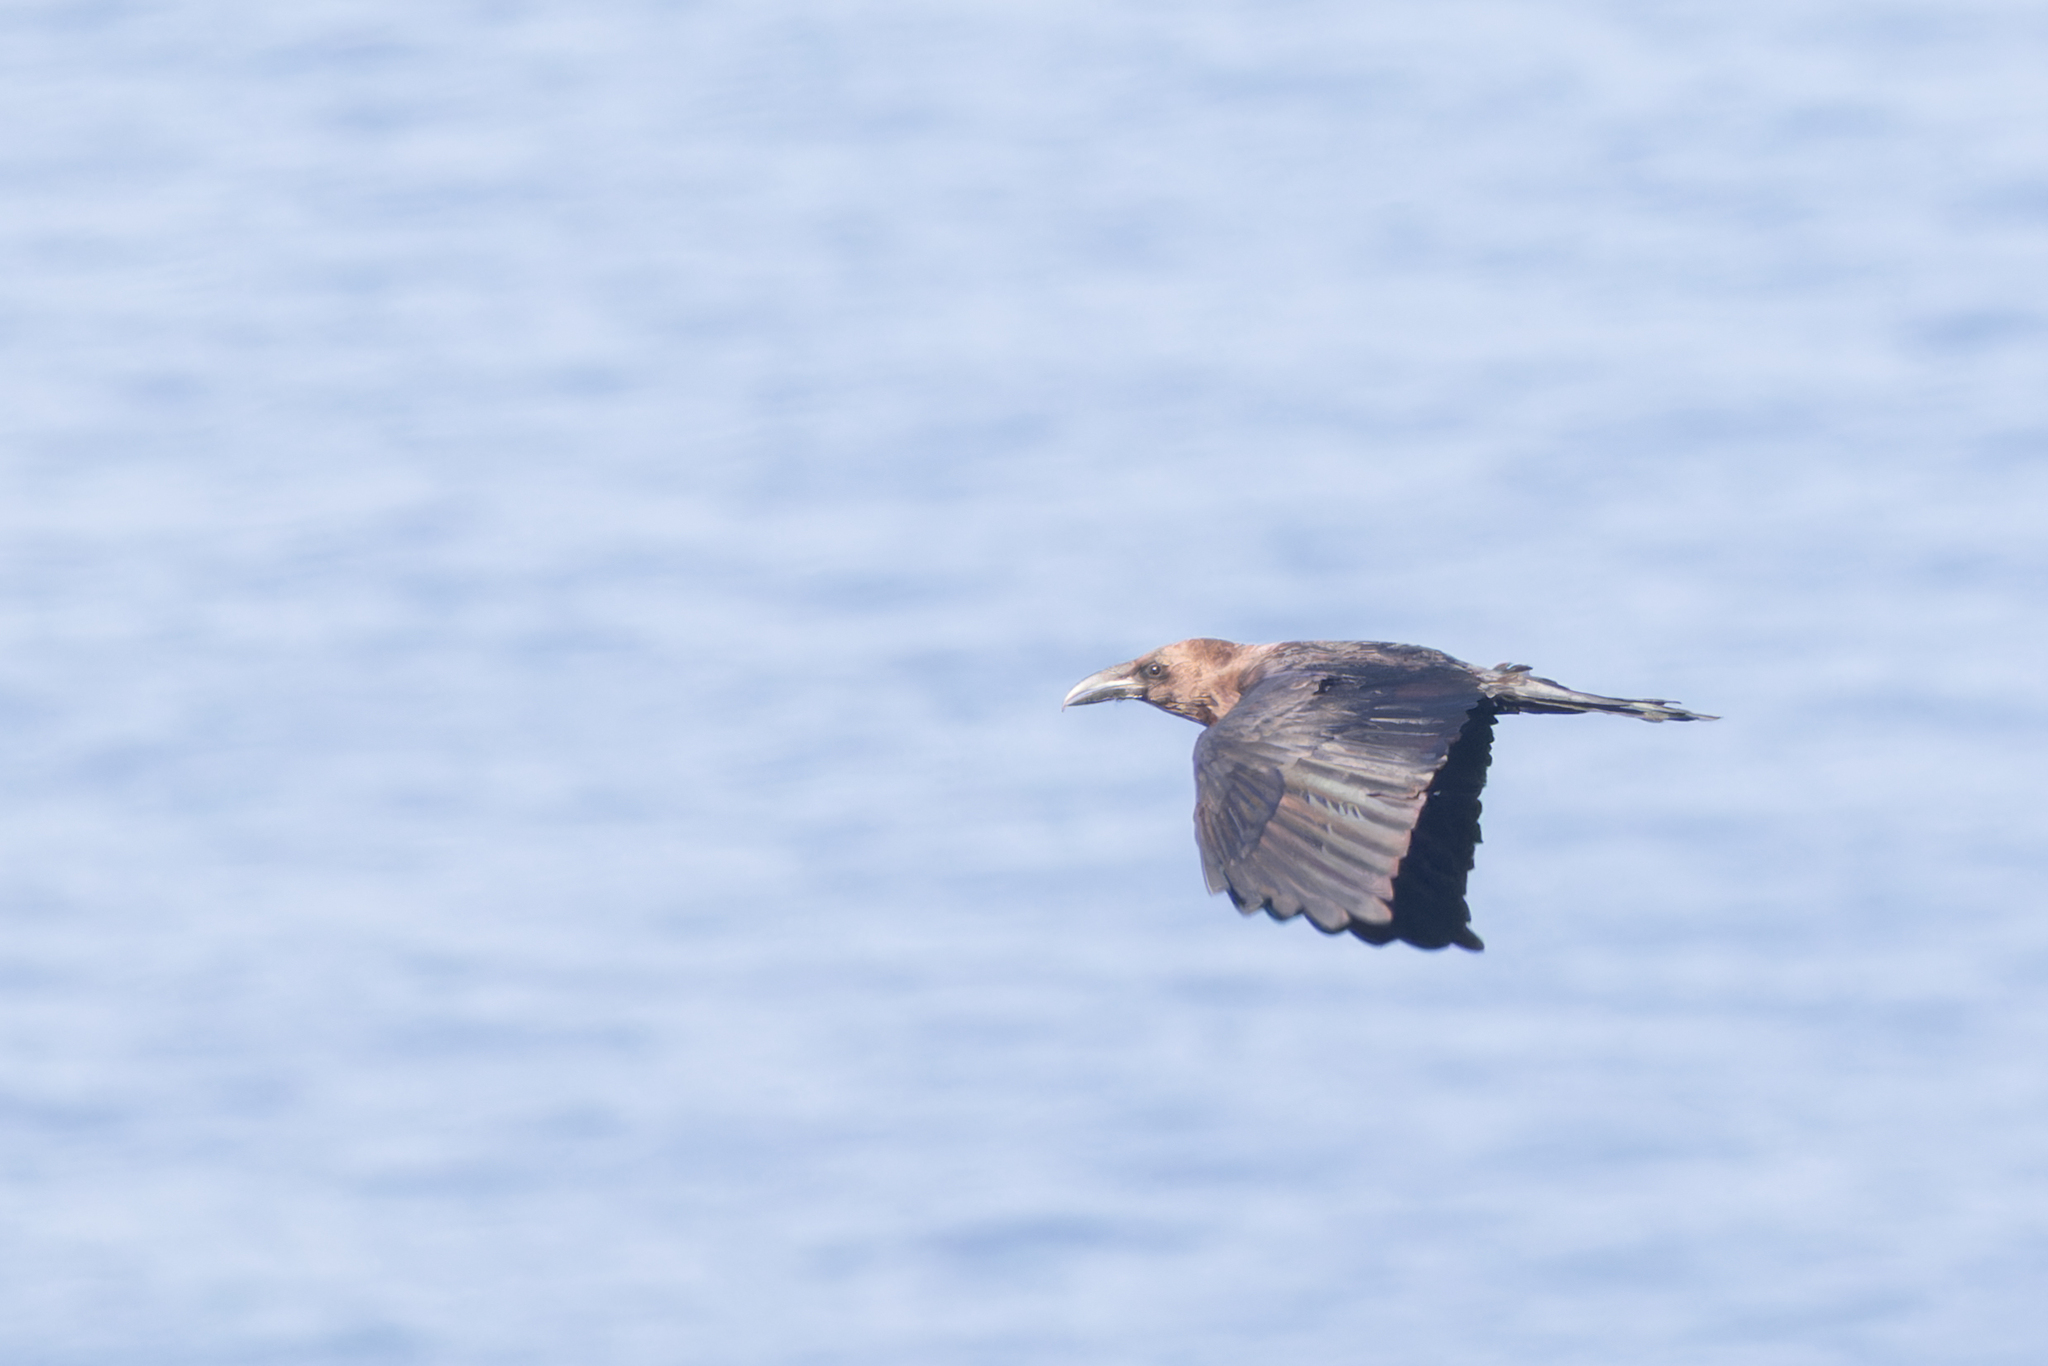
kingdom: Animalia
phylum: Chordata
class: Aves
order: Passeriformes
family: Corvidae
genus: Corvus
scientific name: Corvus ruficollis
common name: Brown-necked raven
